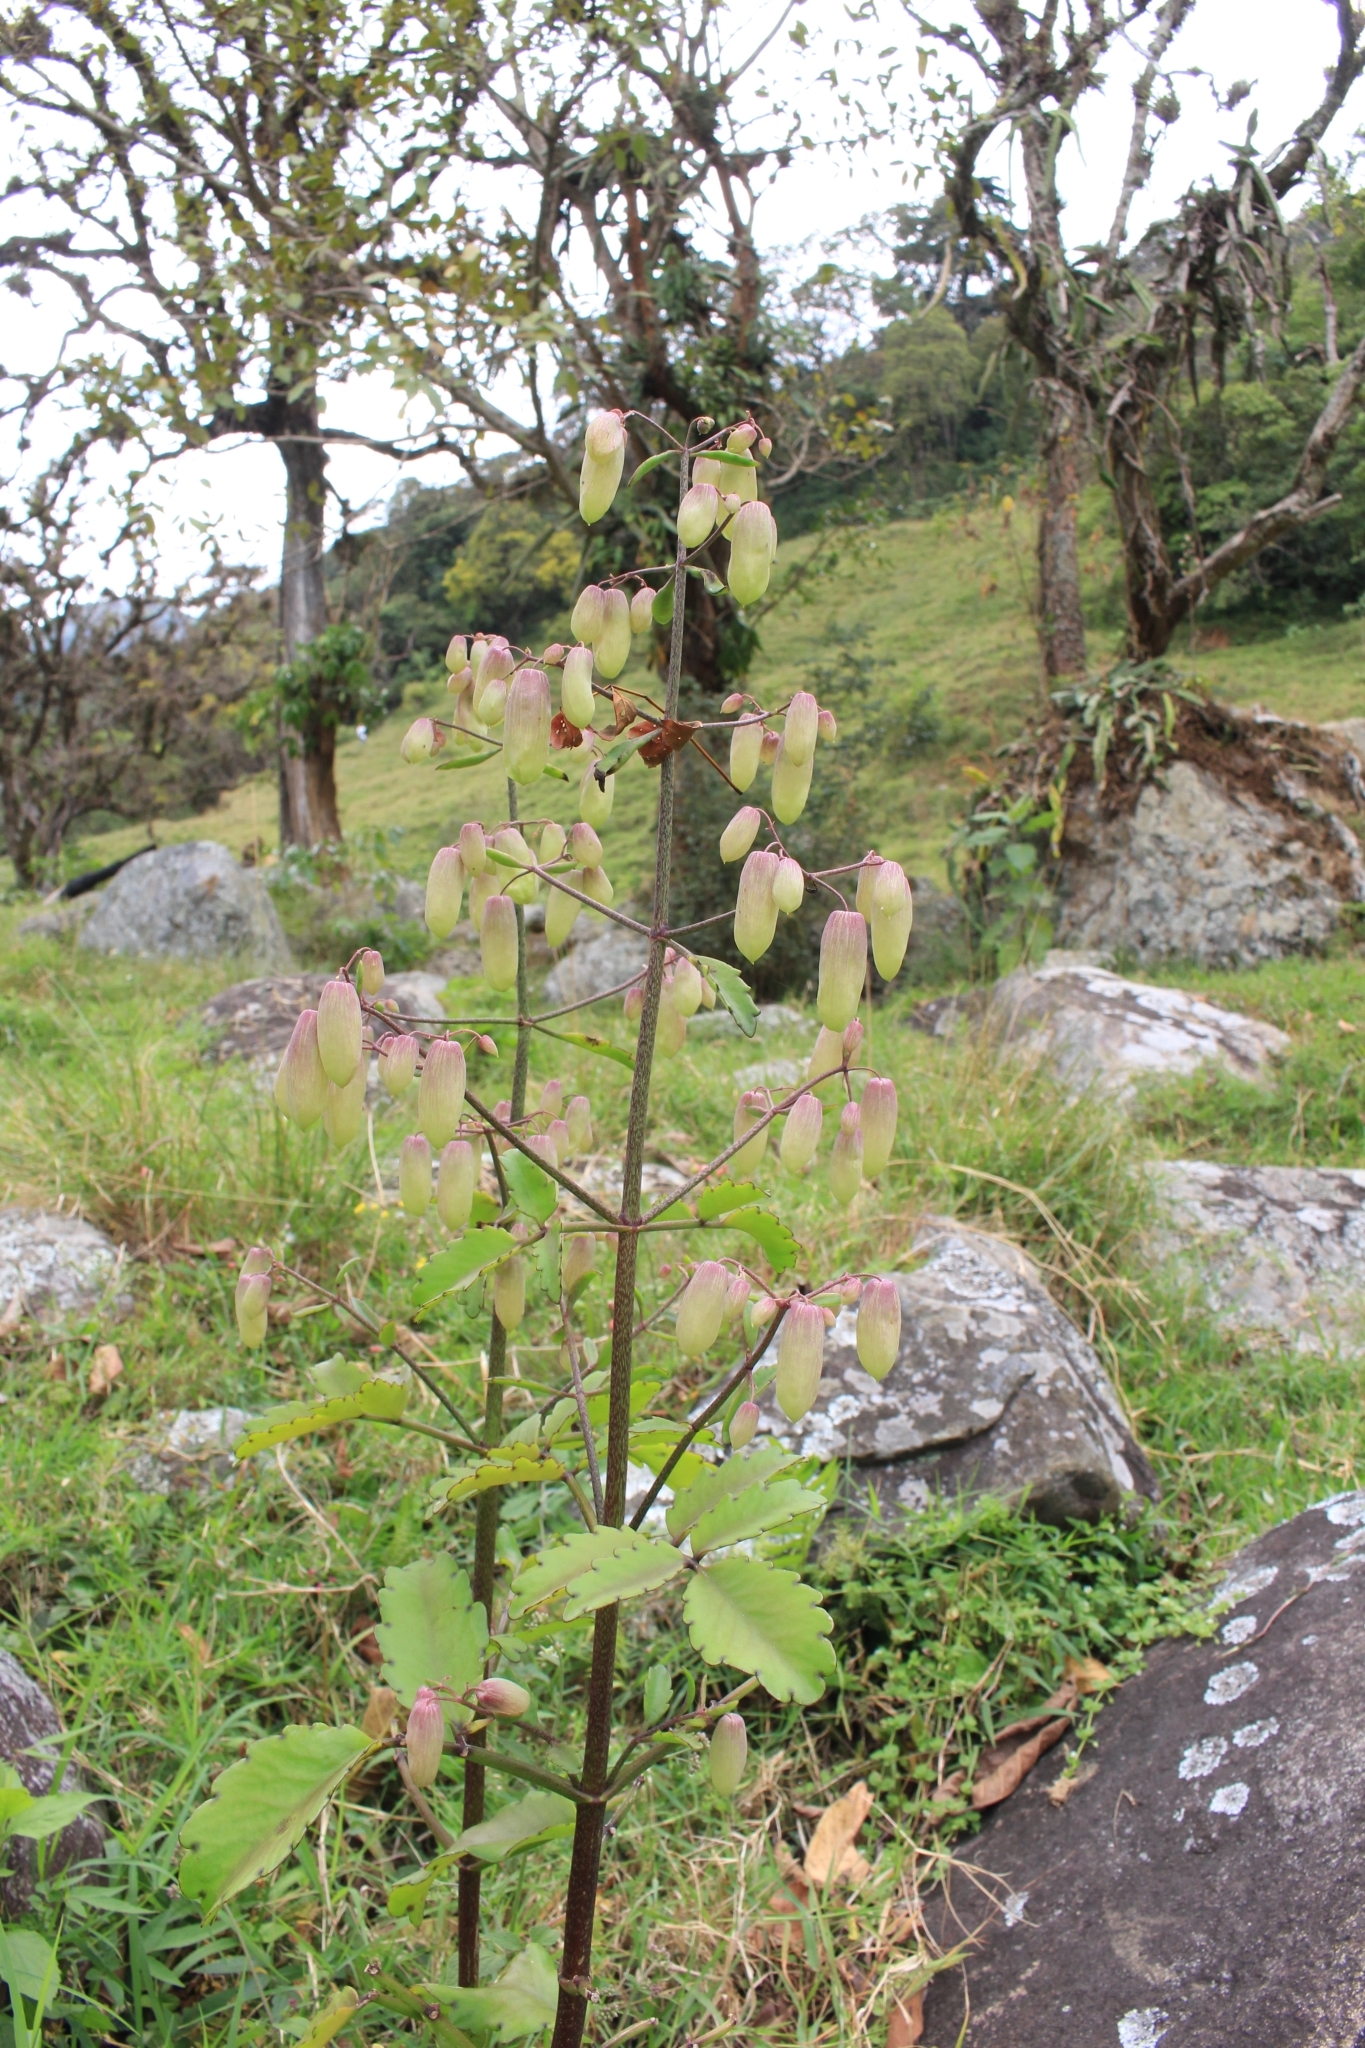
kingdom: Plantae
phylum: Tracheophyta
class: Magnoliopsida
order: Saxifragales
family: Crassulaceae
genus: Kalanchoe
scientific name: Kalanchoe pinnata
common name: Cathedral bells
